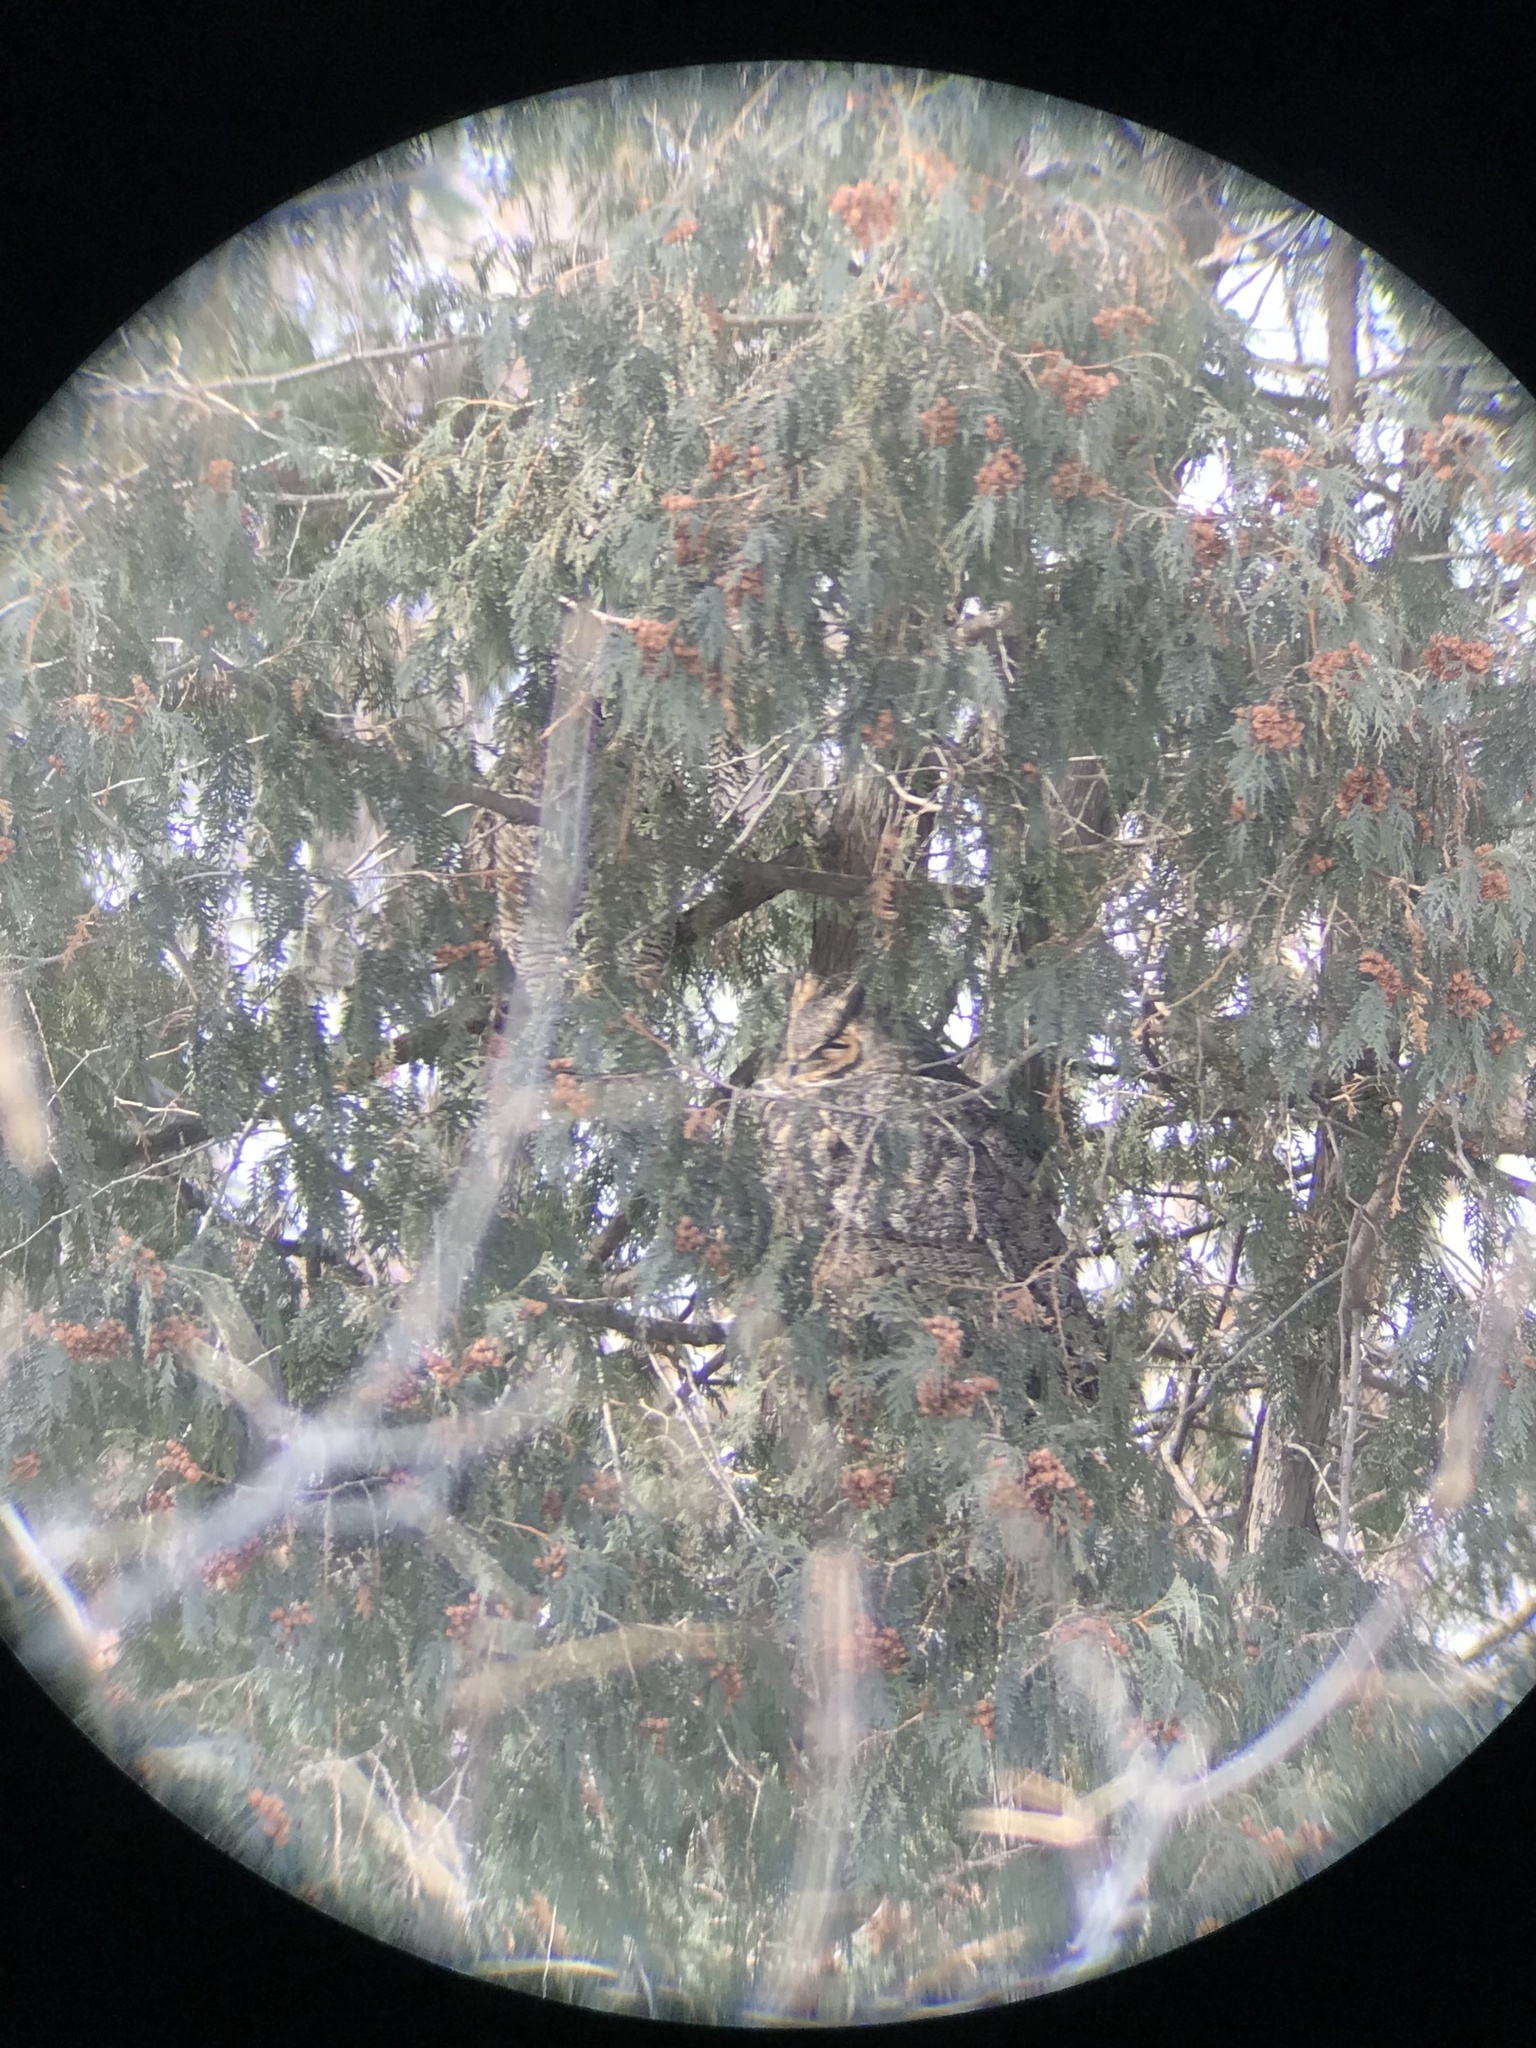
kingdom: Animalia
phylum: Chordata
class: Aves
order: Strigiformes
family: Strigidae
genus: Bubo
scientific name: Bubo virginianus
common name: Great horned owl
